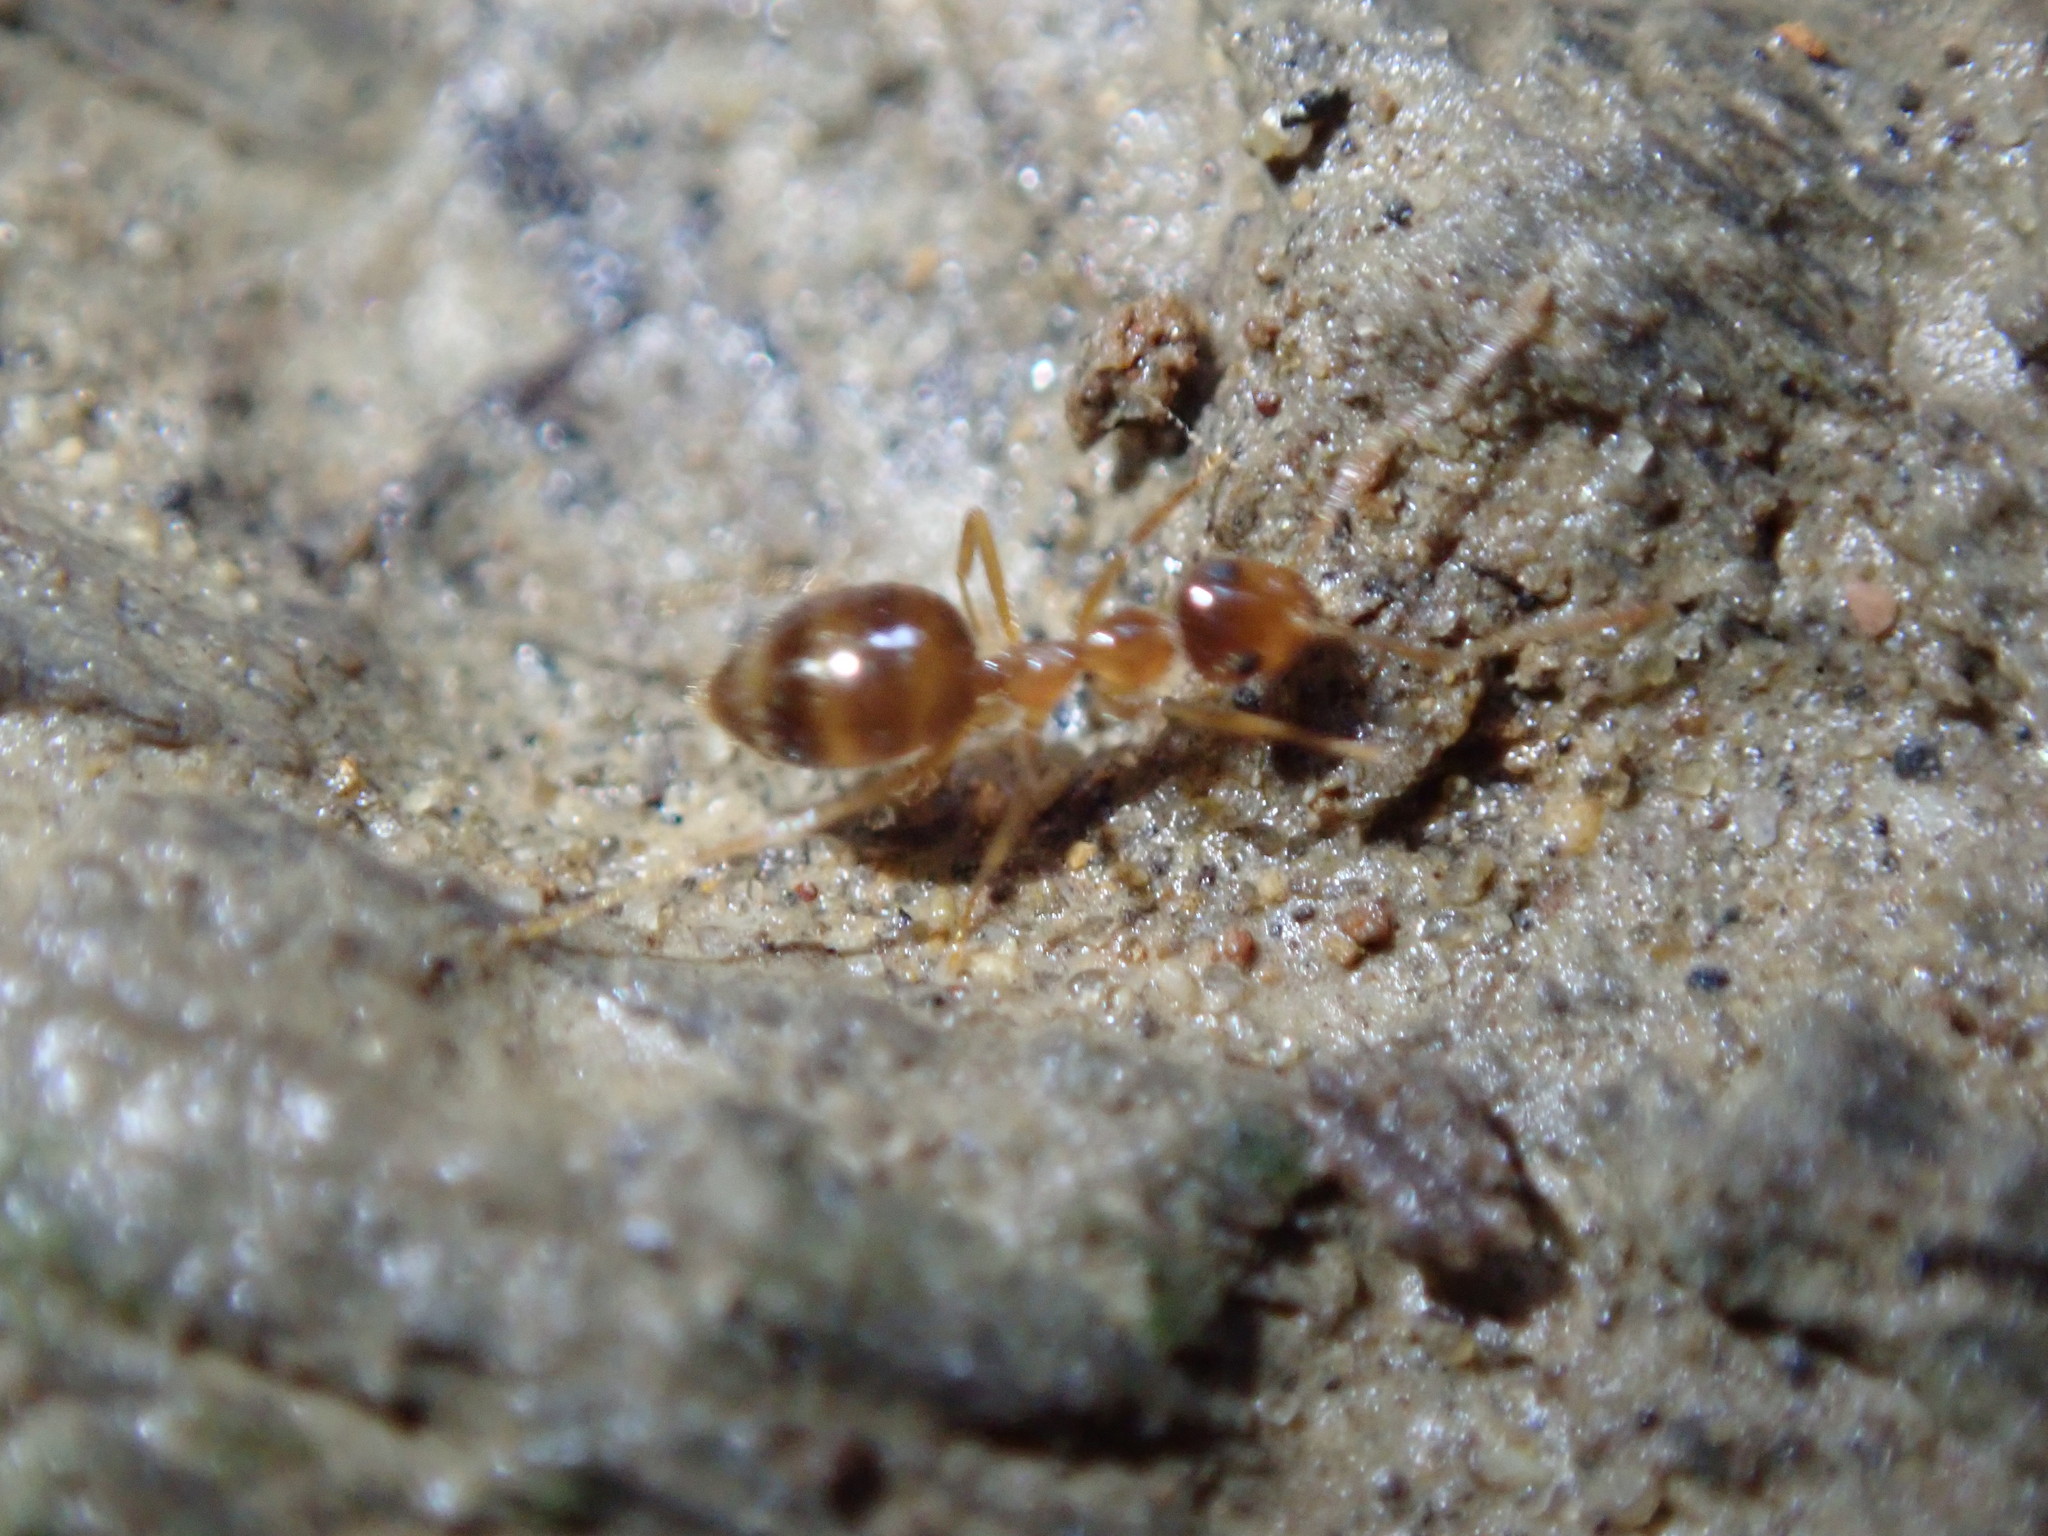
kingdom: Animalia
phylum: Arthropoda
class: Insecta
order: Hymenoptera
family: Formicidae
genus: Prenolepis
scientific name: Prenolepis imparis
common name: Small honey ant
